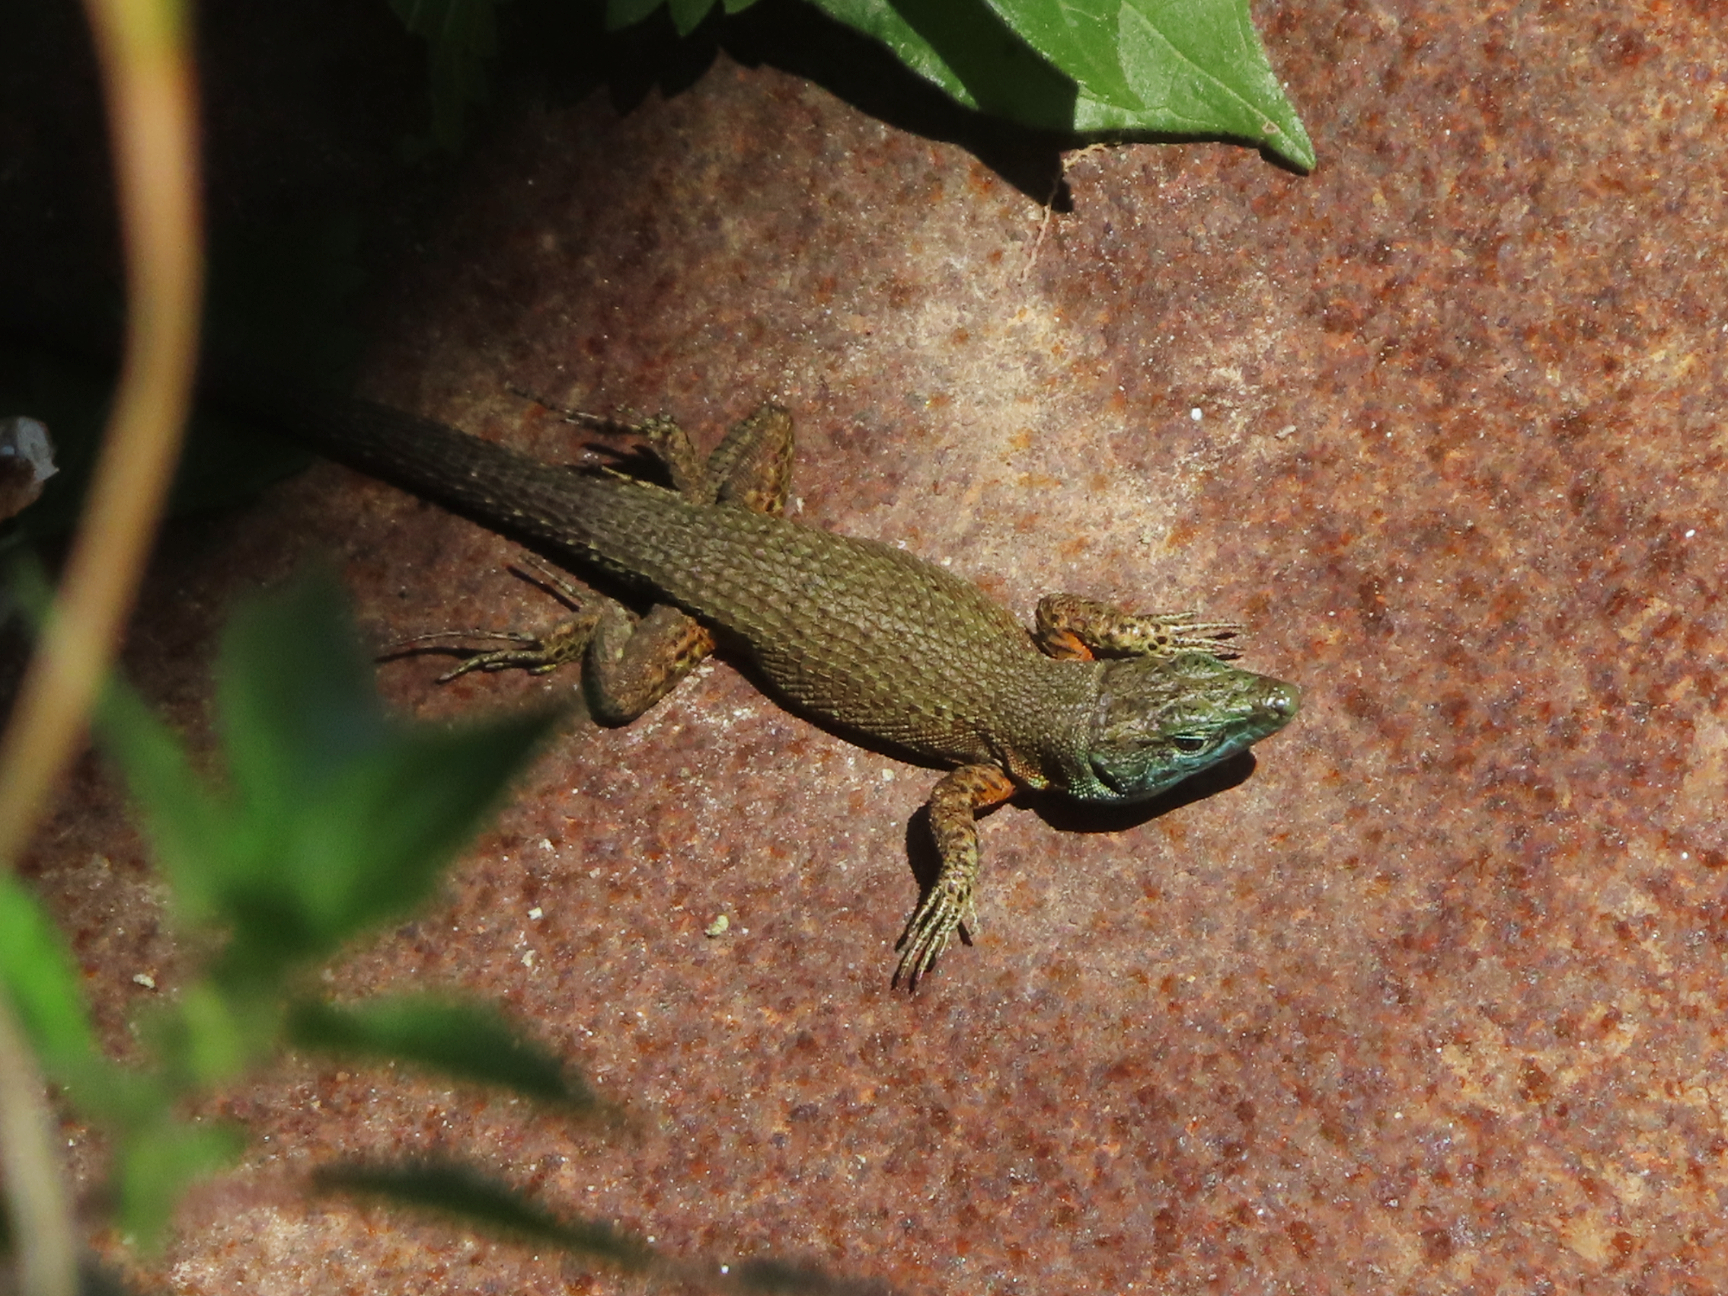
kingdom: Animalia
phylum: Chordata
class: Squamata
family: Lacertidae
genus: Algyroides
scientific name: Algyroides nigropunctatus
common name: Blue-throated keeled lizard
